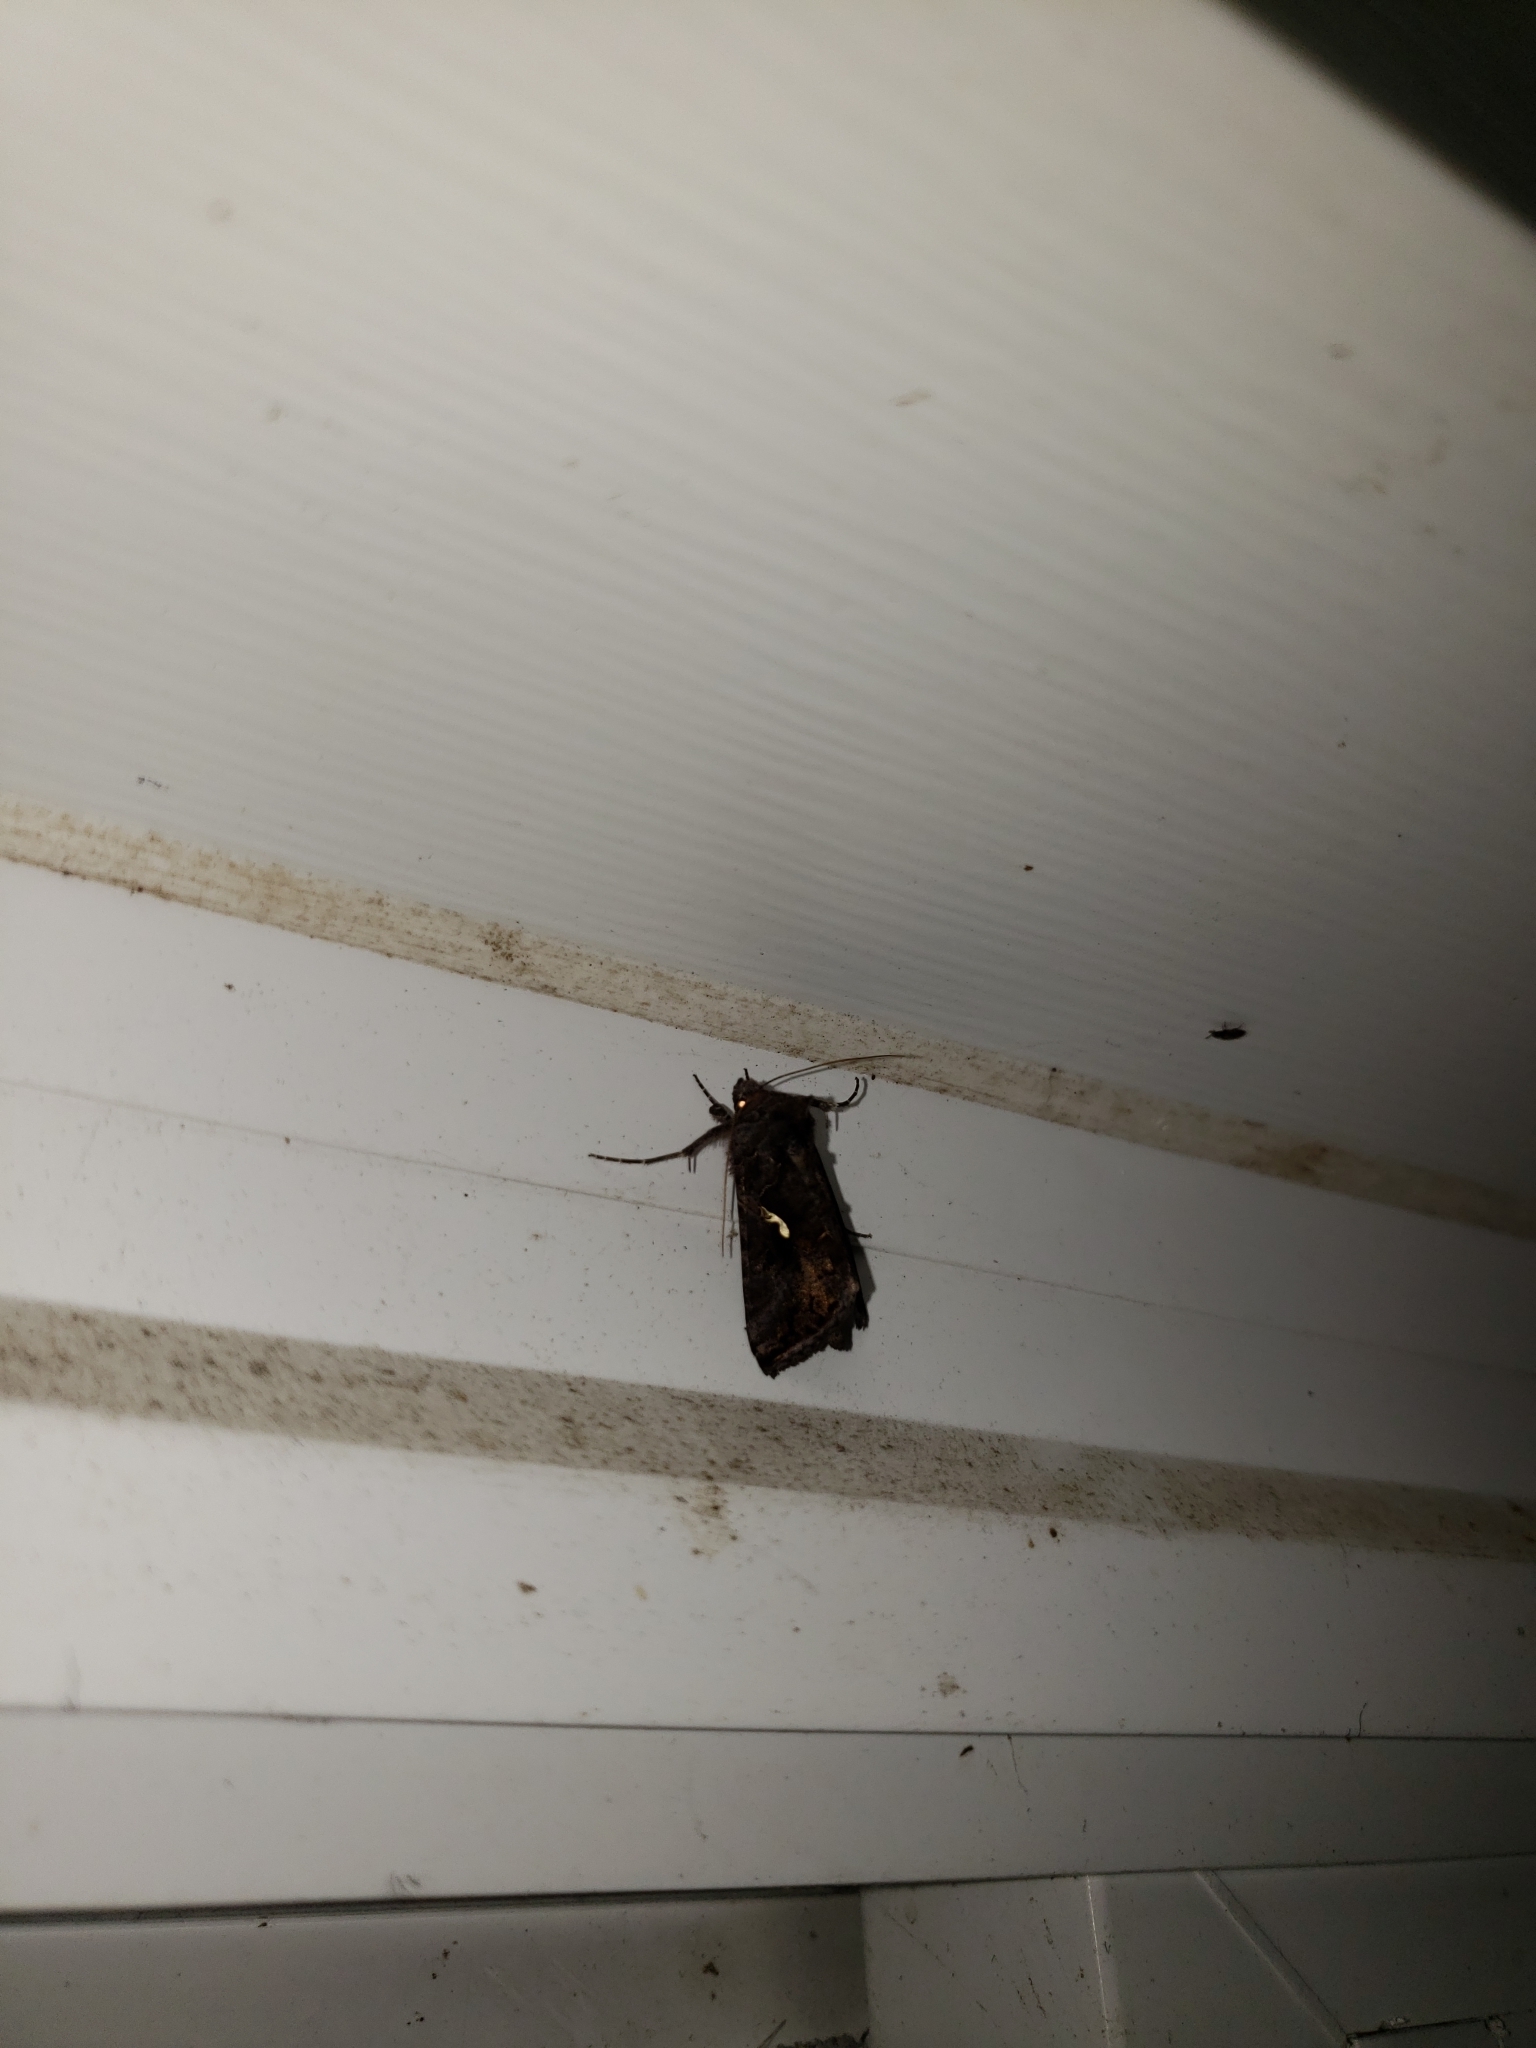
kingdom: Animalia
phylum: Arthropoda
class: Insecta
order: Lepidoptera
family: Noctuidae
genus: Autographa
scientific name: Autographa precationis
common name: Common looper moth
